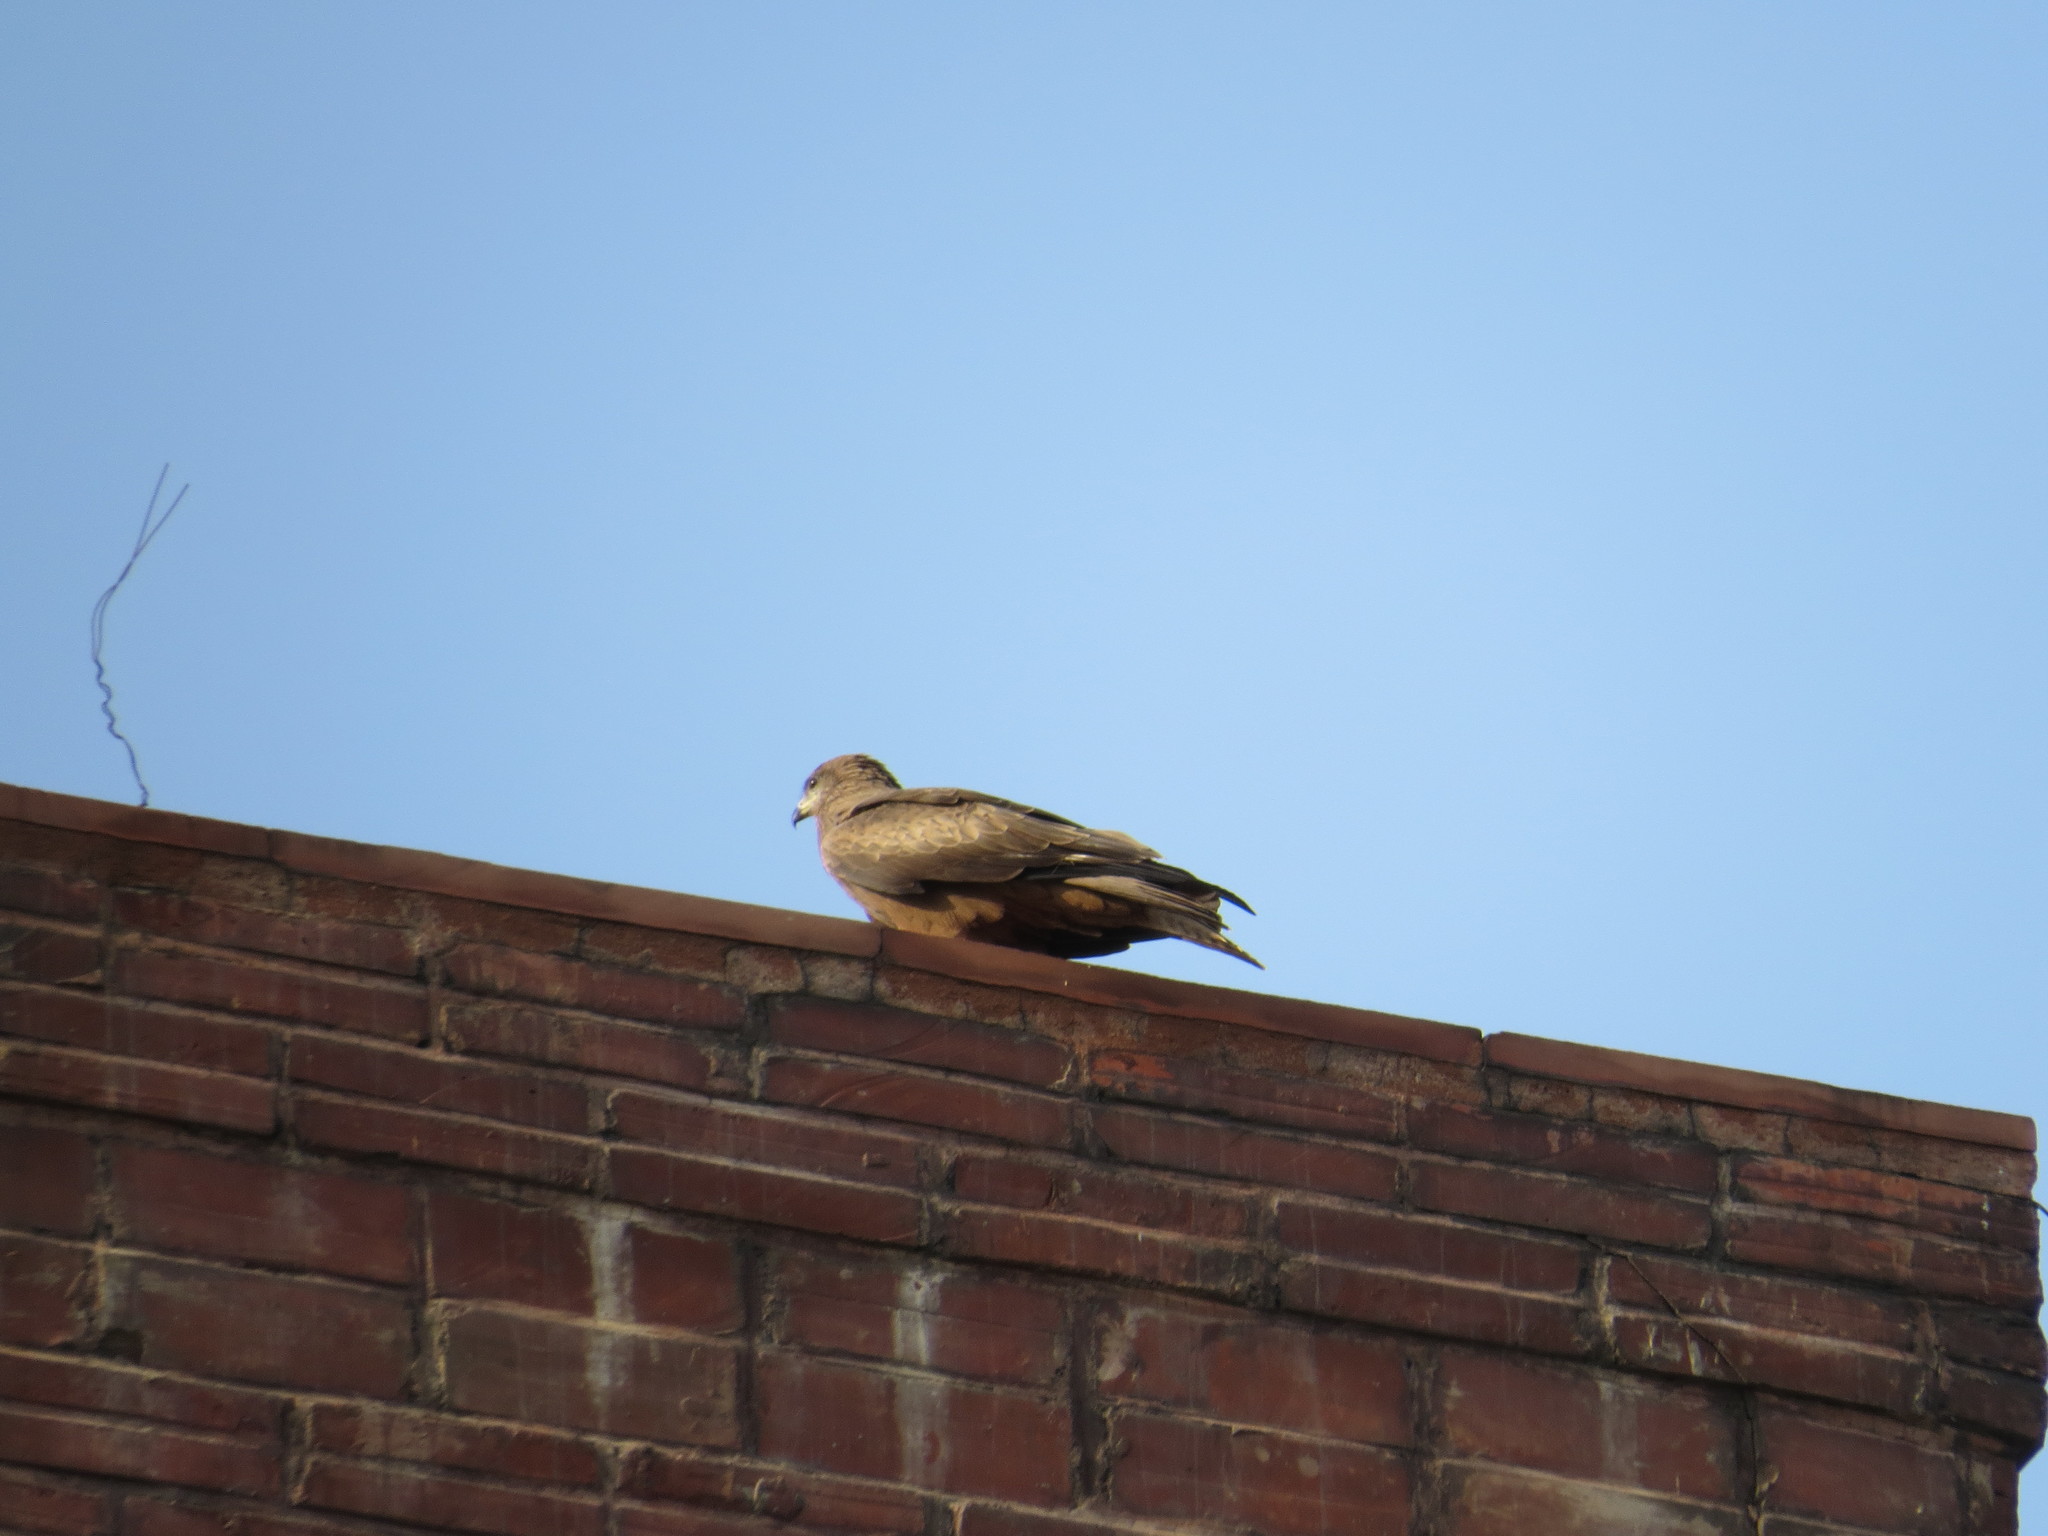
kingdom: Animalia
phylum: Chordata
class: Aves
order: Accipitriformes
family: Accipitridae
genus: Milvus
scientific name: Milvus migrans
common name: Black kite
